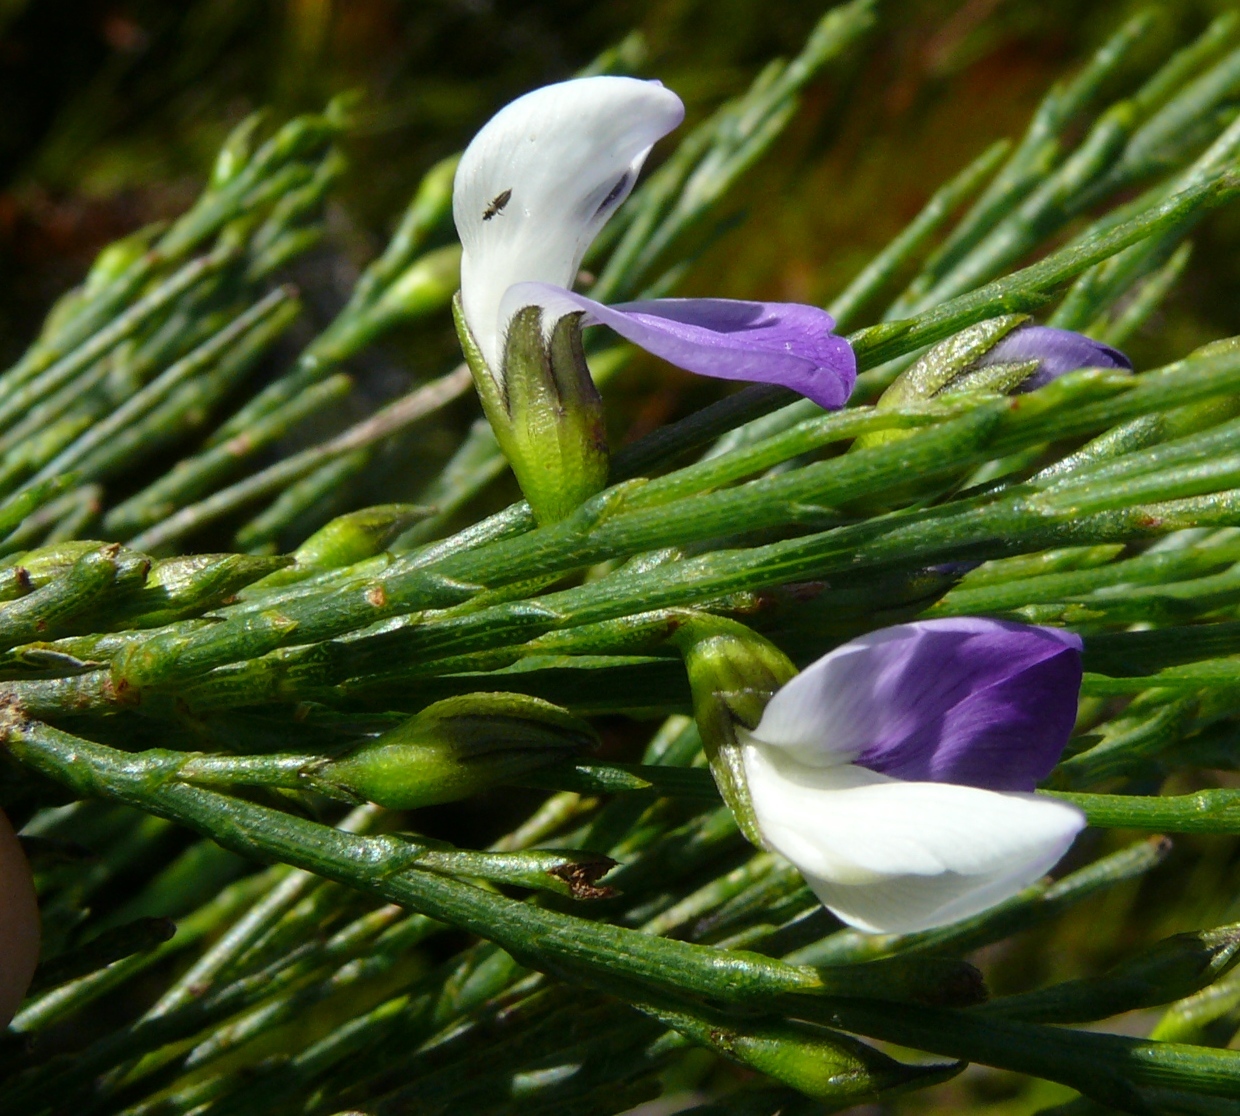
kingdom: Plantae
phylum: Tracheophyta
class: Magnoliopsida
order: Fabales
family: Fabaceae
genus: Psoralea
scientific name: Psoralea usitata
